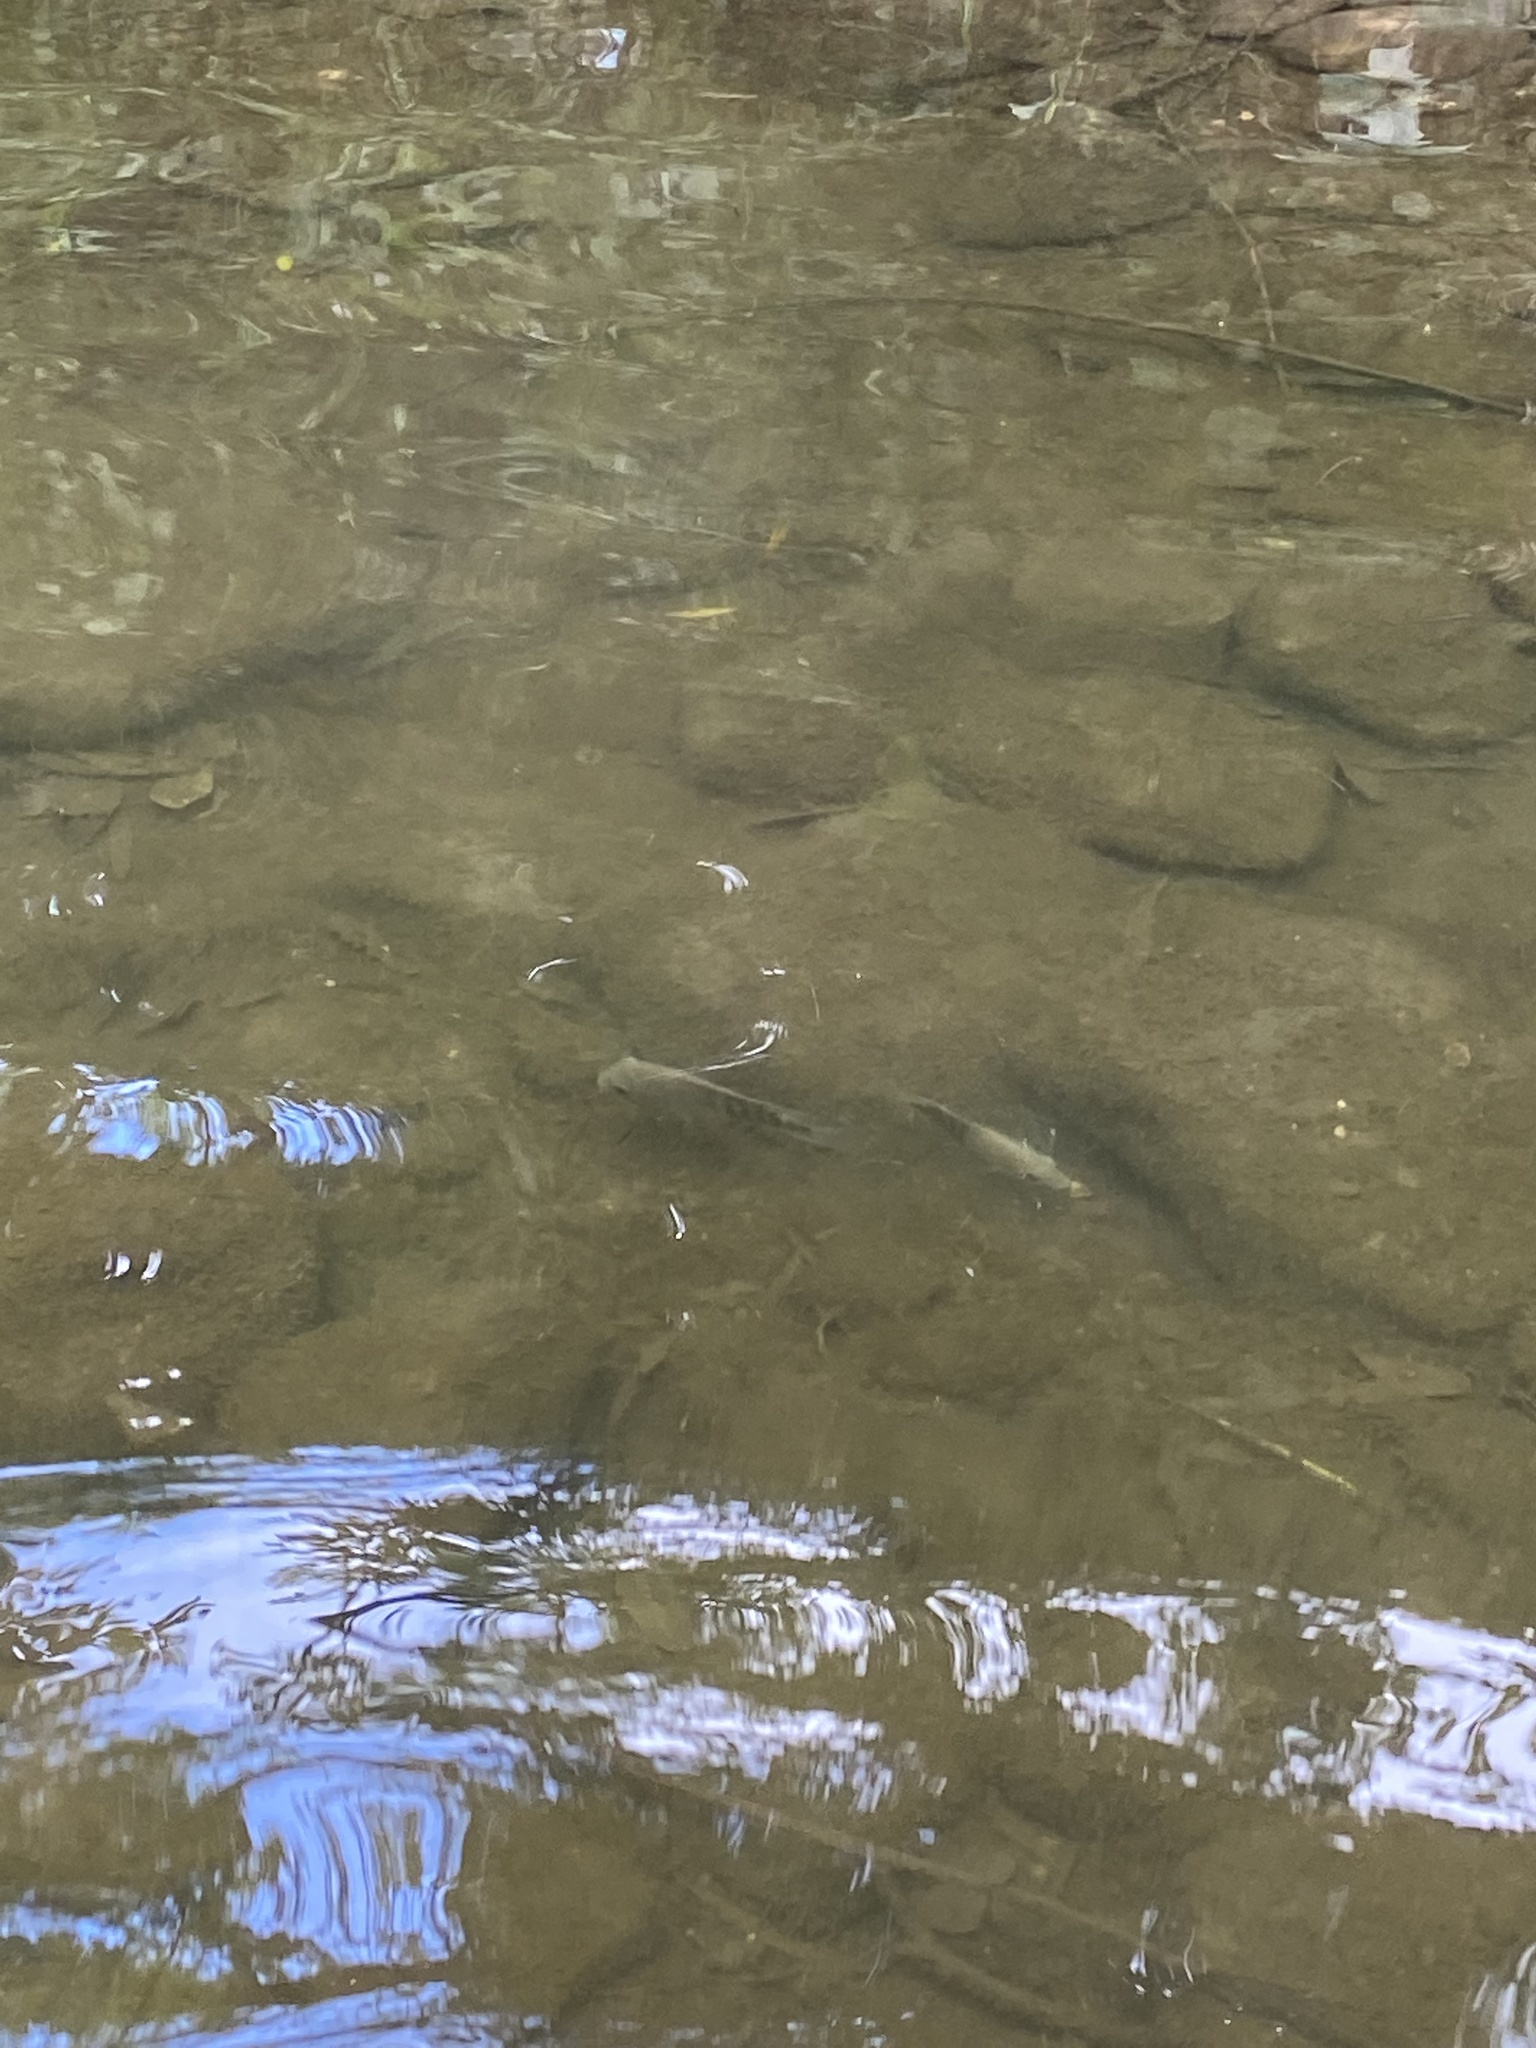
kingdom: Animalia
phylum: Chordata
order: Perciformes
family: Cichlidae
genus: Herichthys
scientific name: Herichthys cyanoguttatus
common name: Rio grande cichlid
